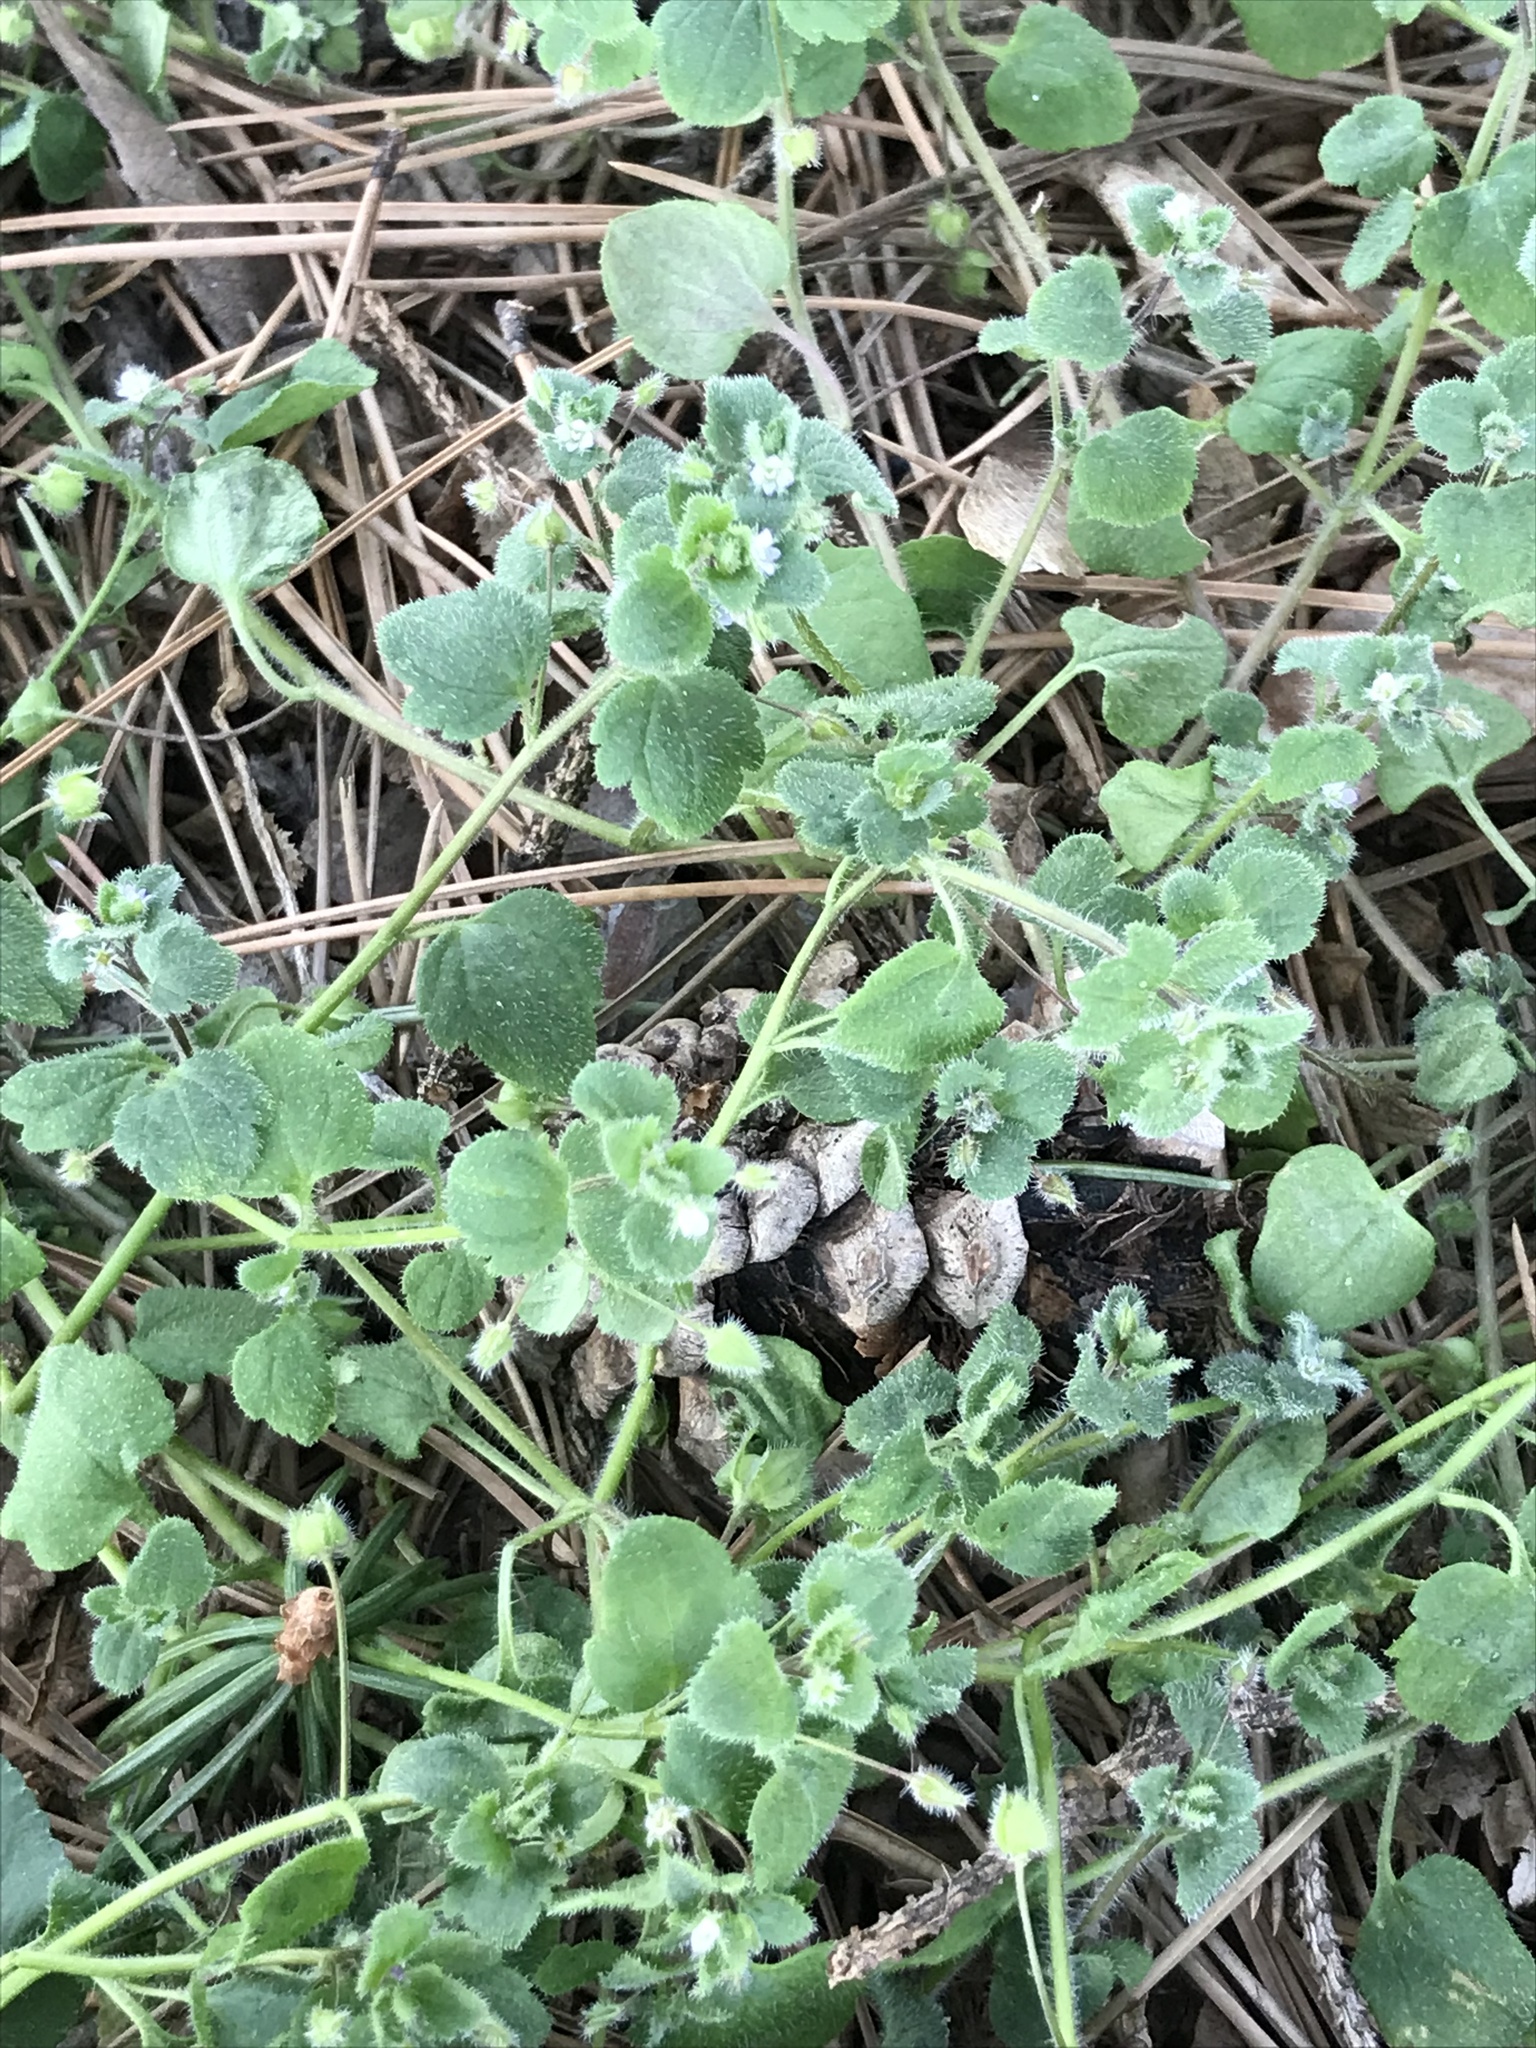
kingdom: Plantae
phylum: Tracheophyta
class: Magnoliopsida
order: Lamiales
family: Plantaginaceae
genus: Veronica
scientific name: Veronica sublobata
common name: False ivy-leaved speedwell
